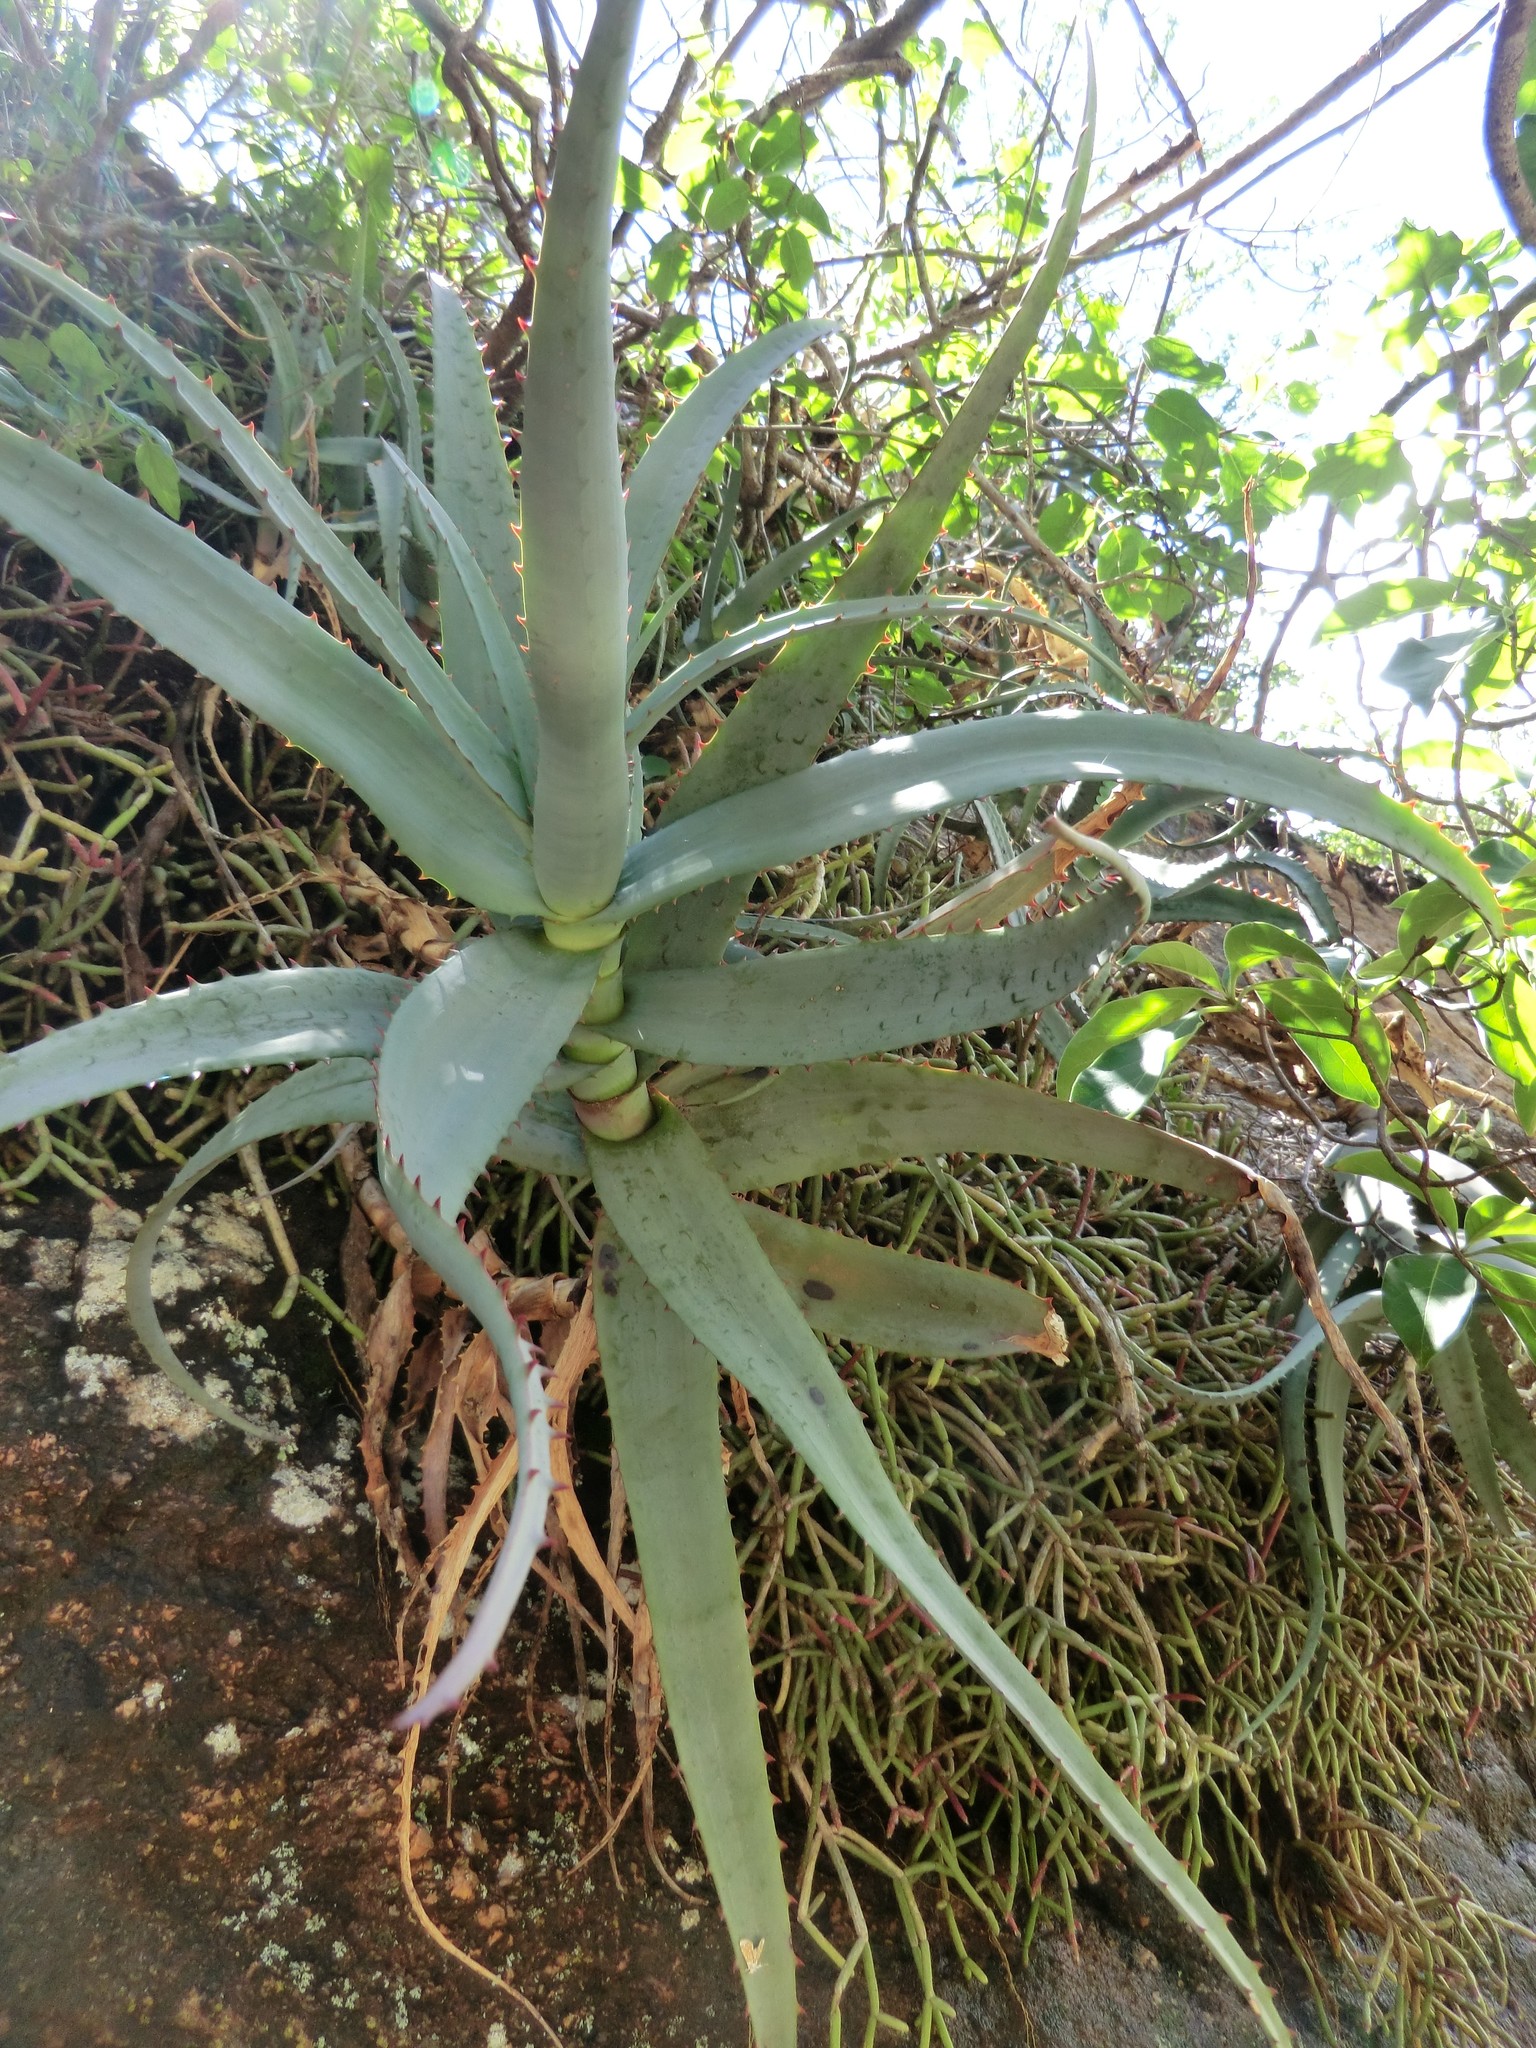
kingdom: Plantae
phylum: Tracheophyta
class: Liliopsida
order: Asparagales
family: Asphodelaceae
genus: Aloe
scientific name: Aloe divaricata
